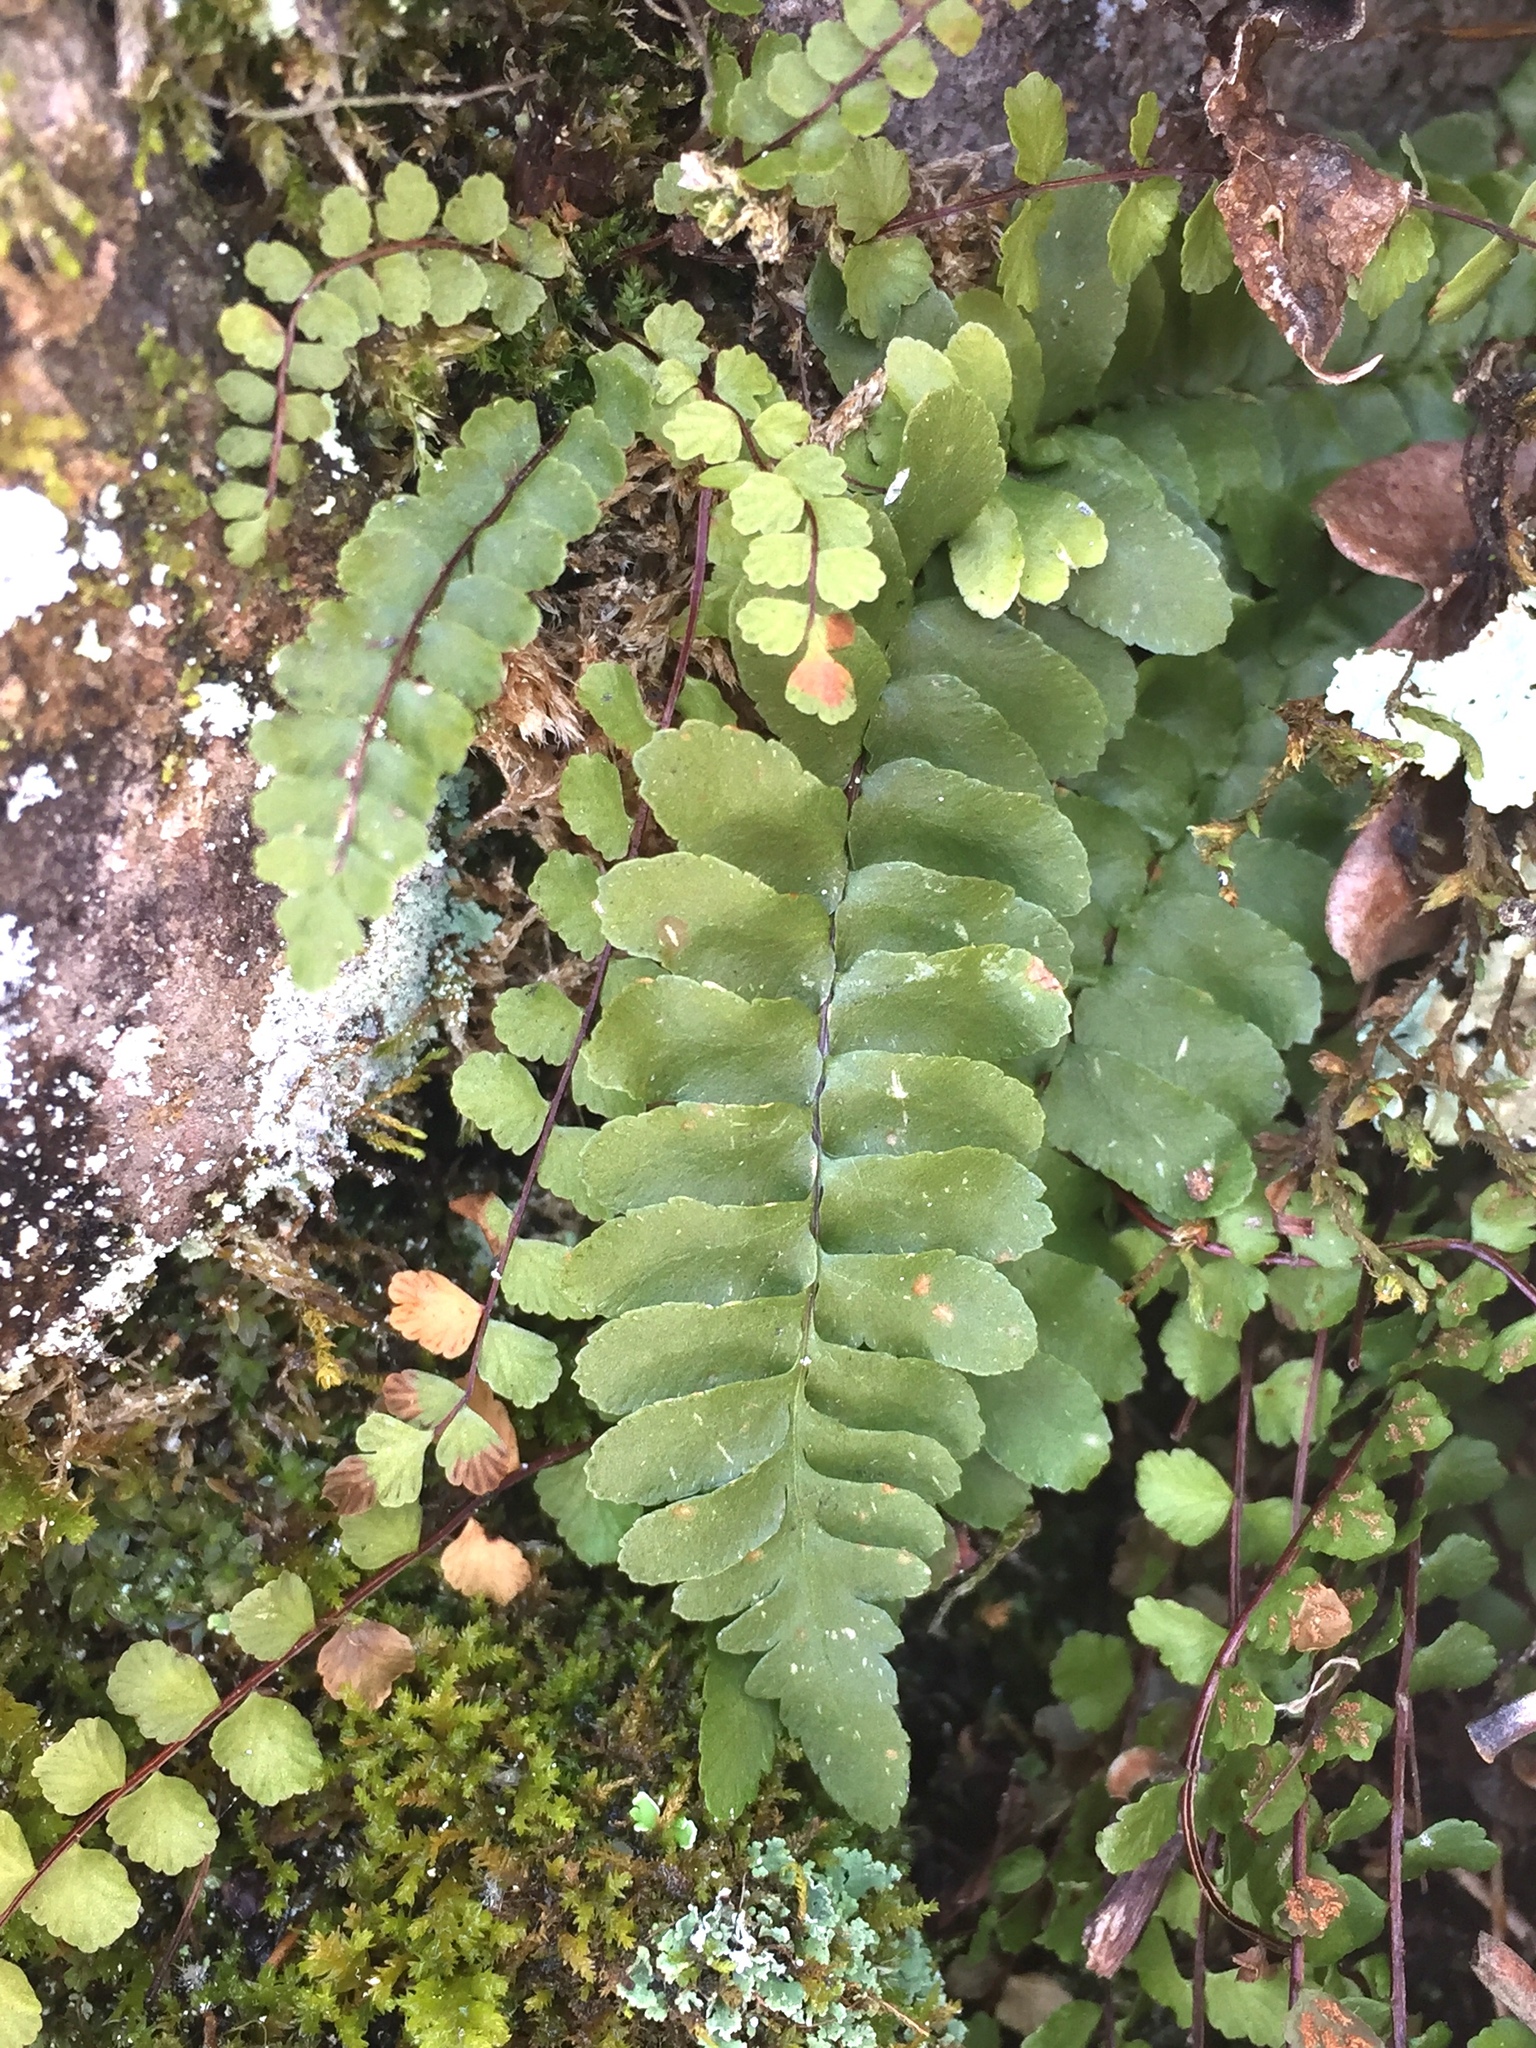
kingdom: Plantae
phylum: Tracheophyta
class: Polypodiopsida
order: Polypodiales
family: Aspleniaceae
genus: Asplenium
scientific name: Asplenium platyneuron
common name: Ebony spleenwort
